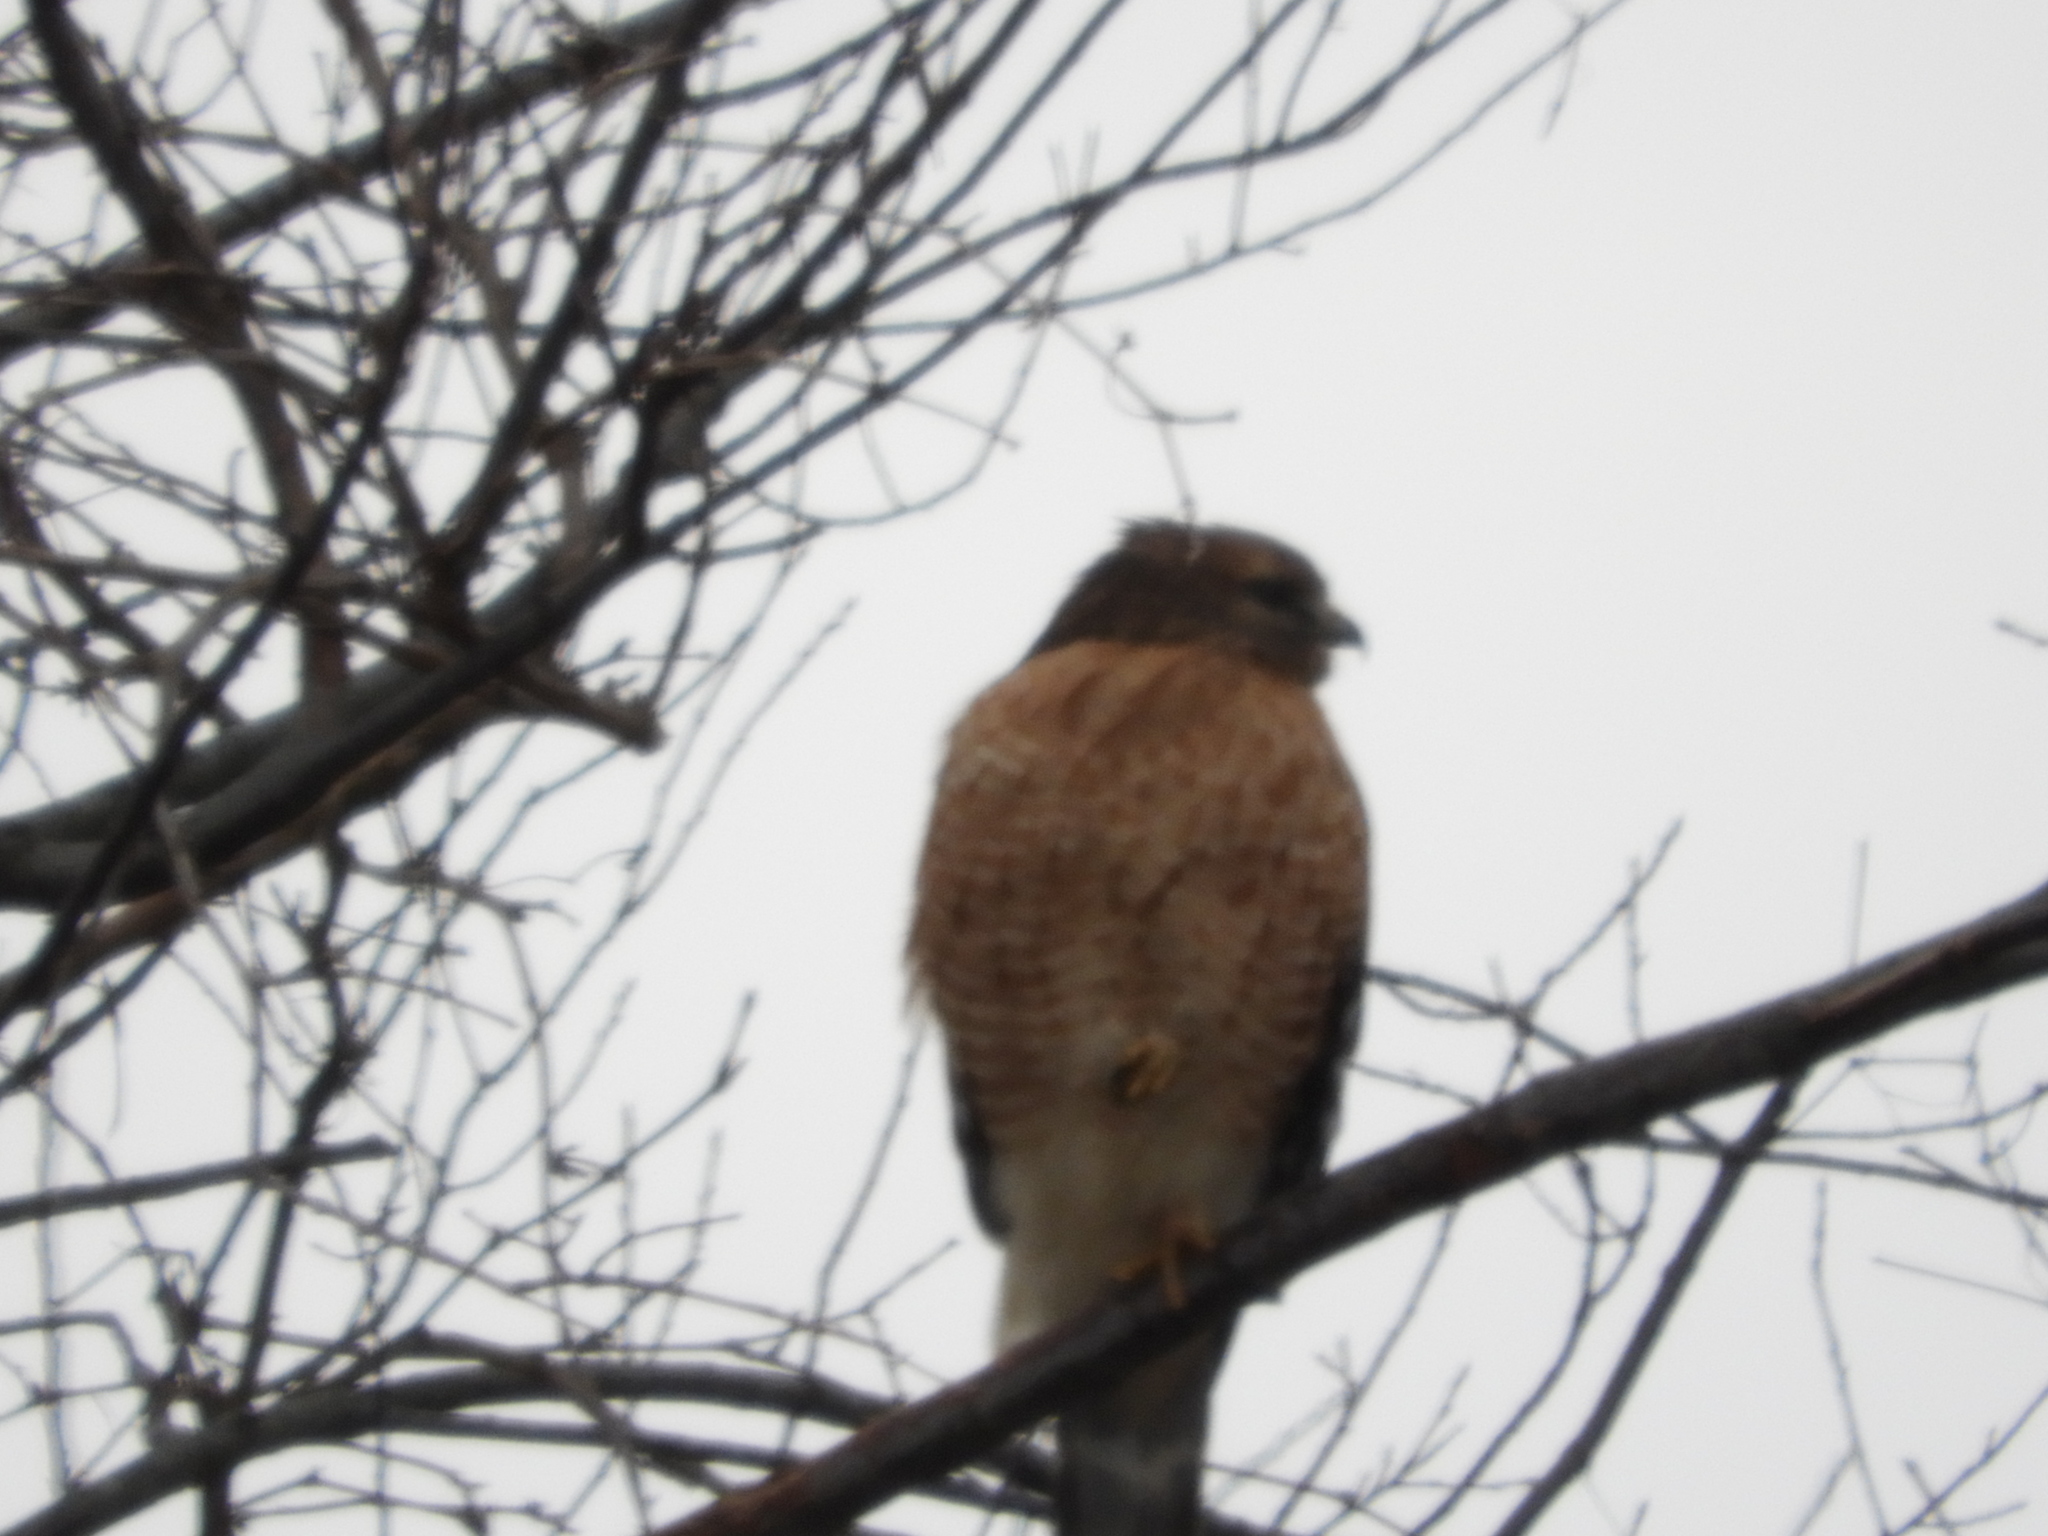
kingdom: Animalia
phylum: Chordata
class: Aves
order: Accipitriformes
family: Accipitridae
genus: Buteo
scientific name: Buteo lineatus
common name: Red-shouldered hawk
